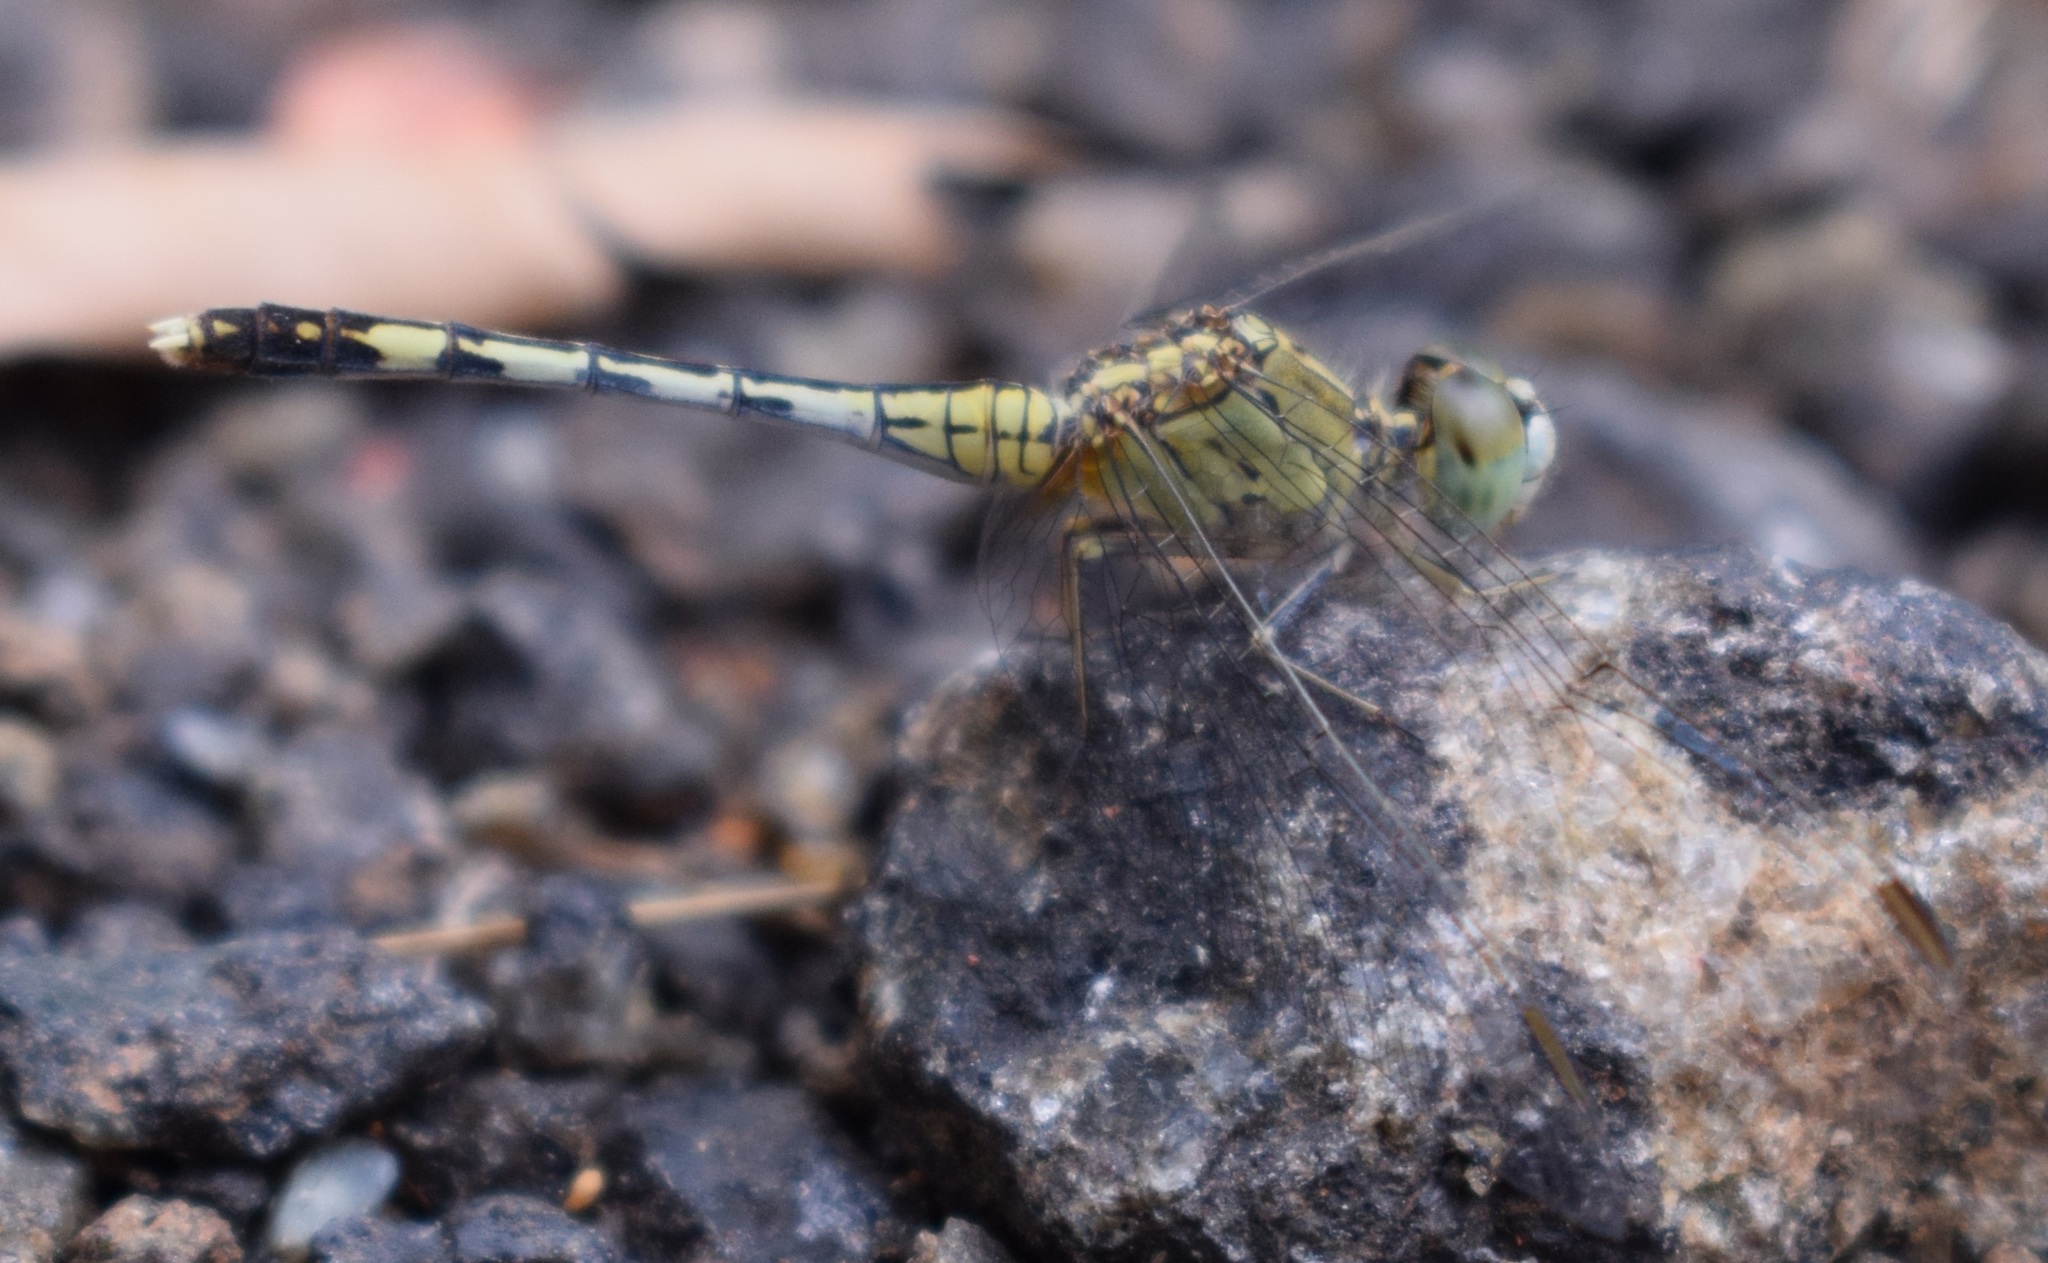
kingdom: Animalia
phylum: Arthropoda
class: Insecta
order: Odonata
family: Libellulidae
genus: Diplacodes
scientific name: Diplacodes trivialis
